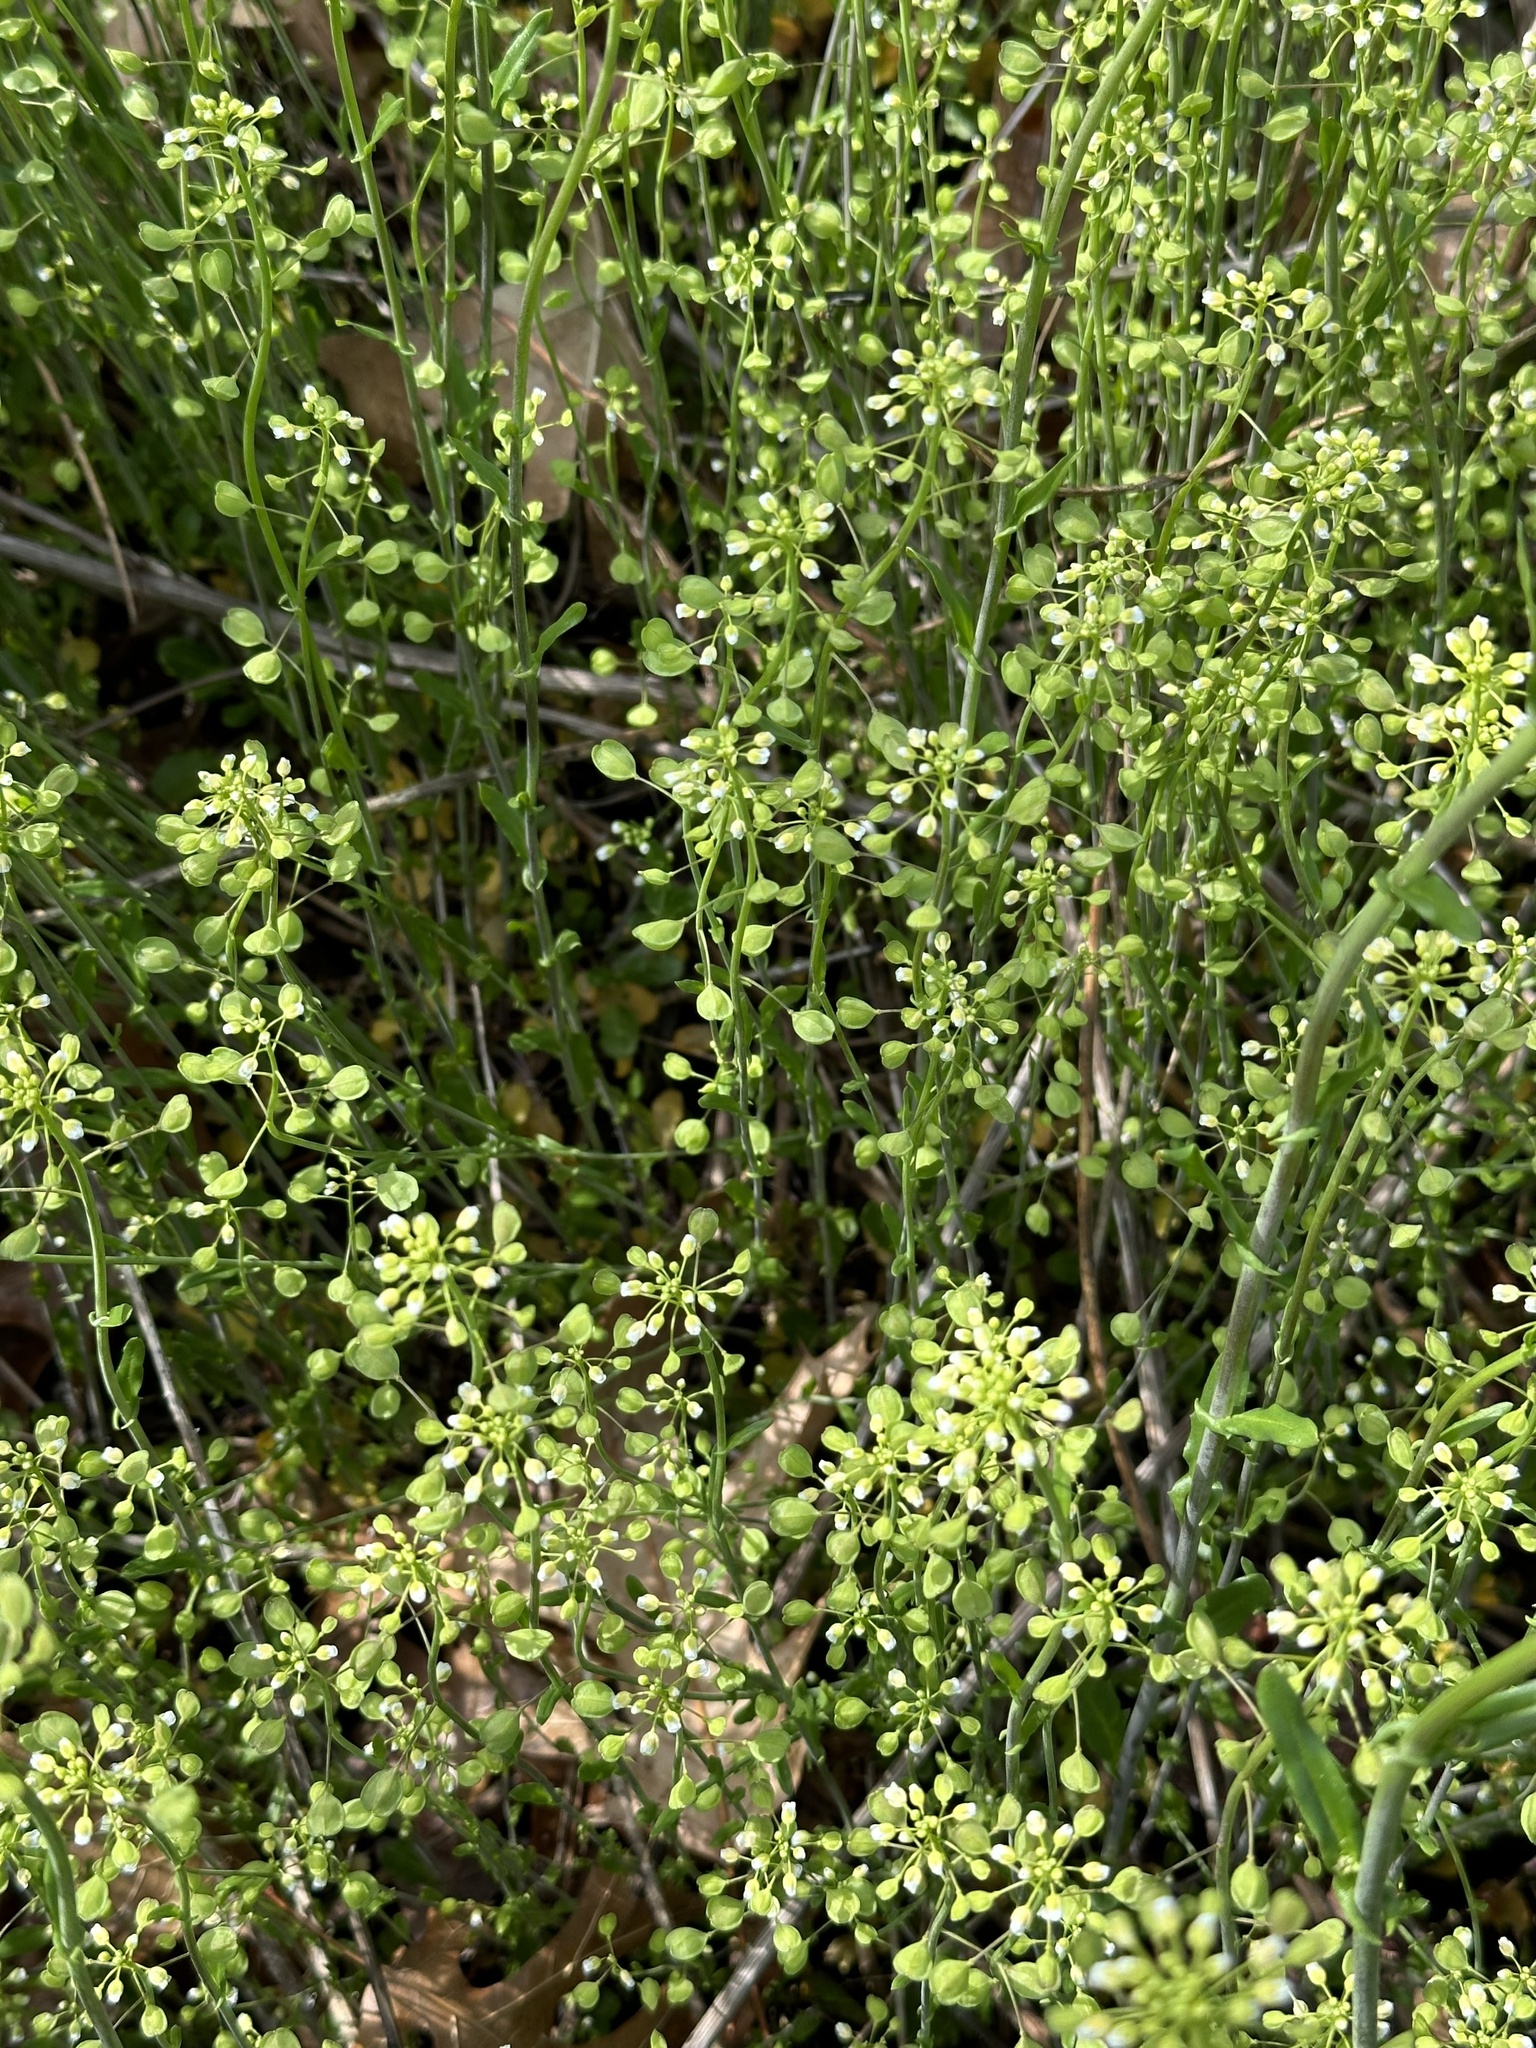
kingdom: Plantae
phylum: Tracheophyta
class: Magnoliopsida
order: Brassicales
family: Brassicaceae
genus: Mummenhoffia
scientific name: Mummenhoffia alliacea
